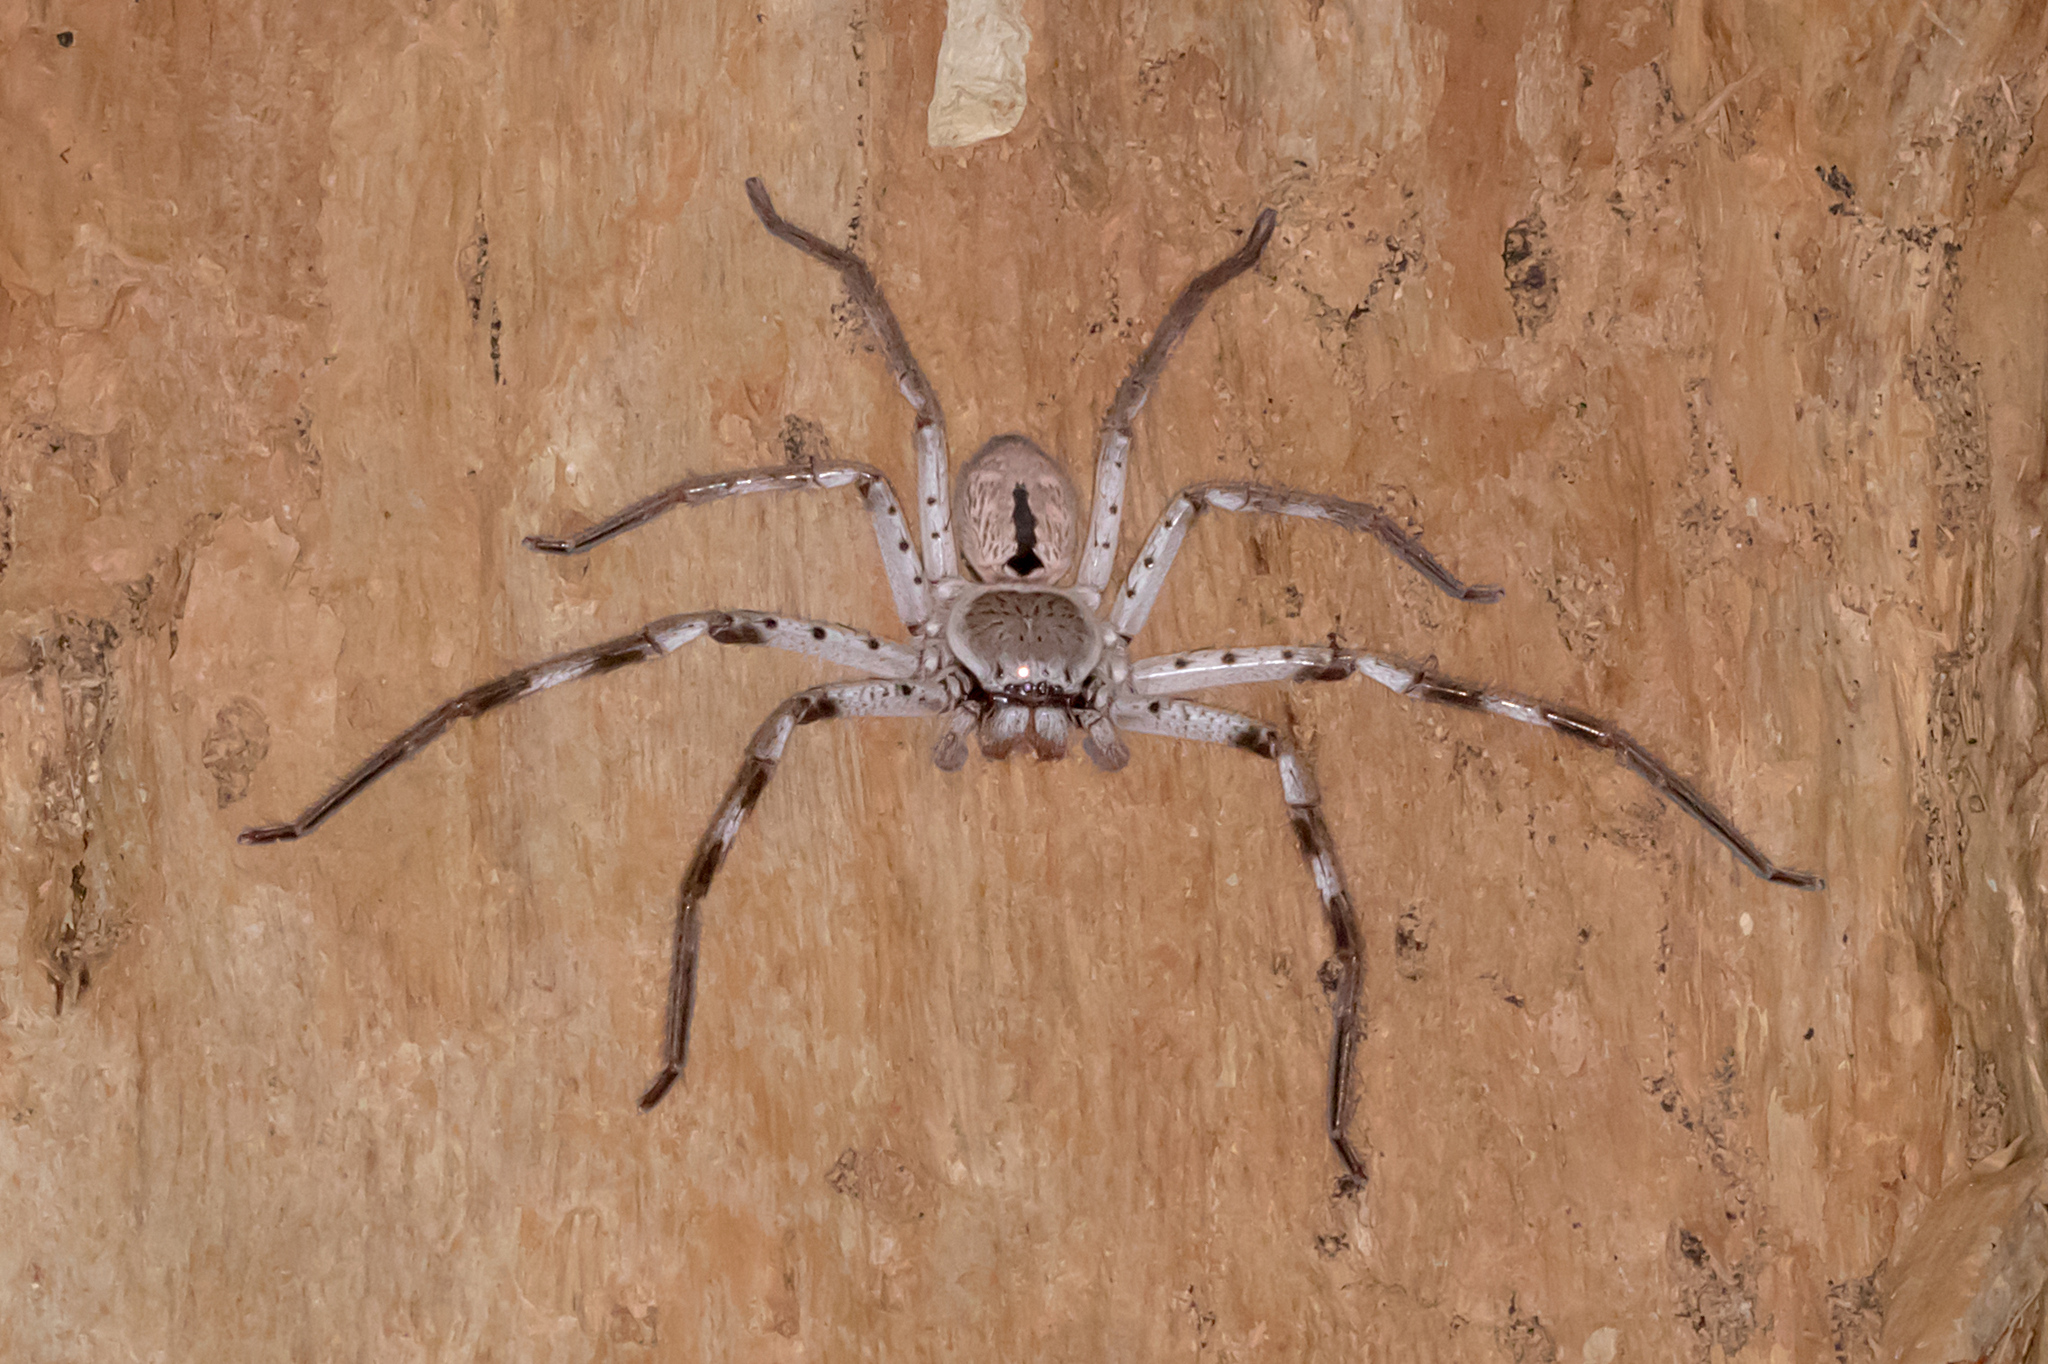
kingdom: Animalia
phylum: Arthropoda
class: Arachnida
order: Araneae
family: Sparassidae
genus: Holconia
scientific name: Holconia immanis
